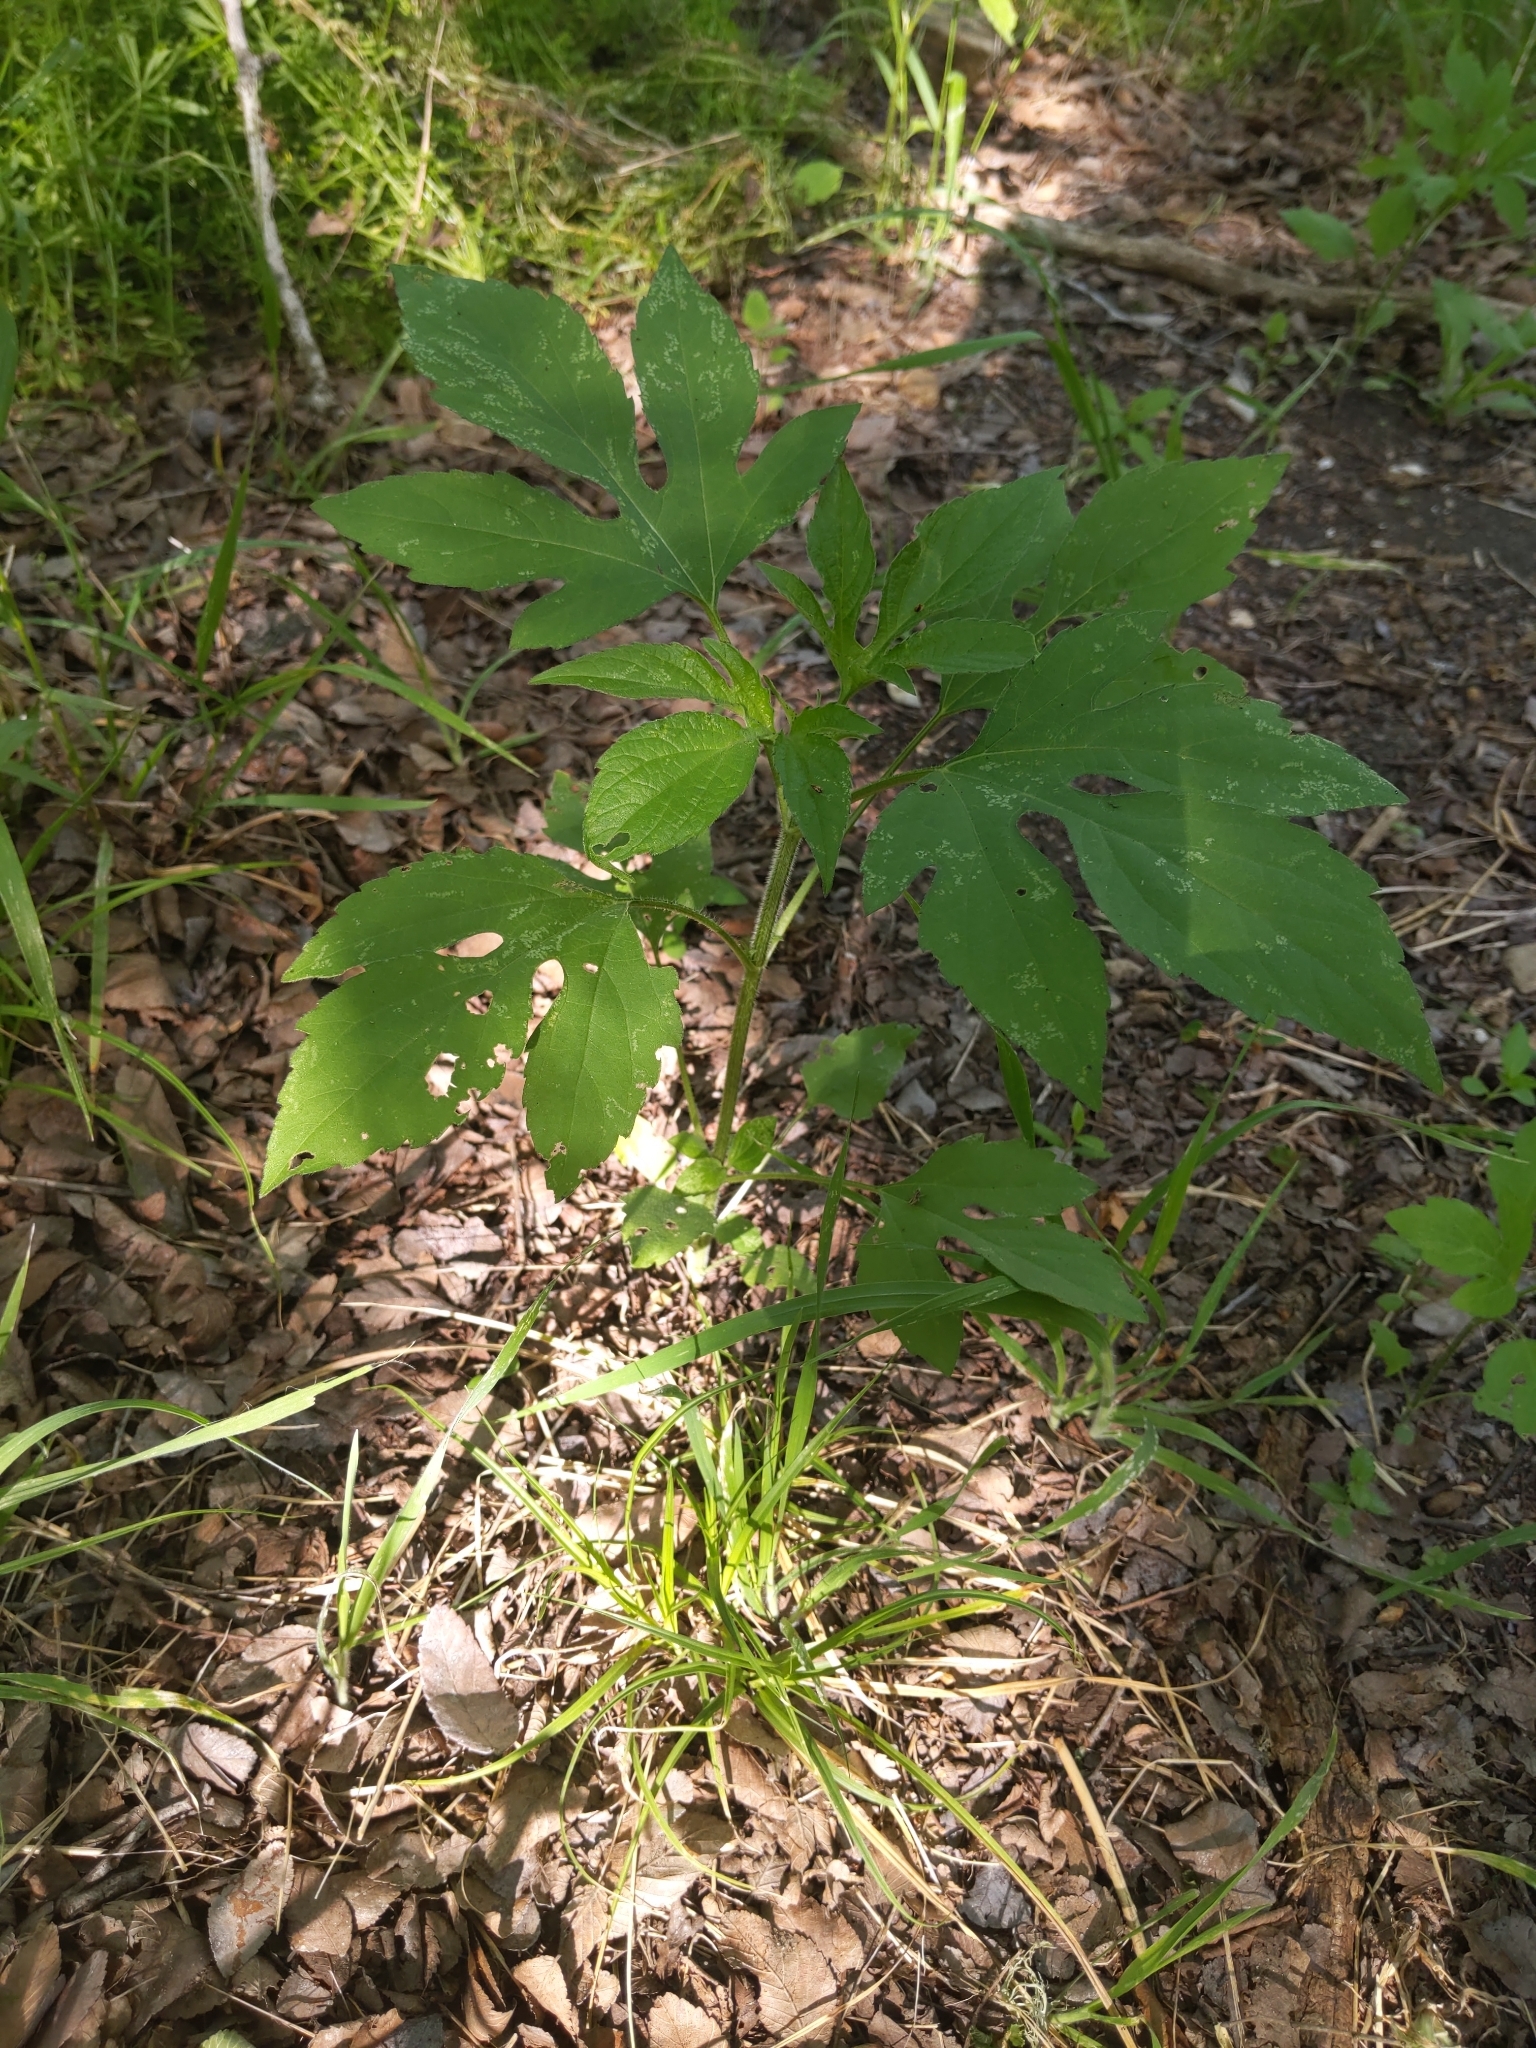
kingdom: Plantae
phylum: Tracheophyta
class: Magnoliopsida
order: Asterales
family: Asteraceae
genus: Ambrosia
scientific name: Ambrosia trifida
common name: Giant ragweed
